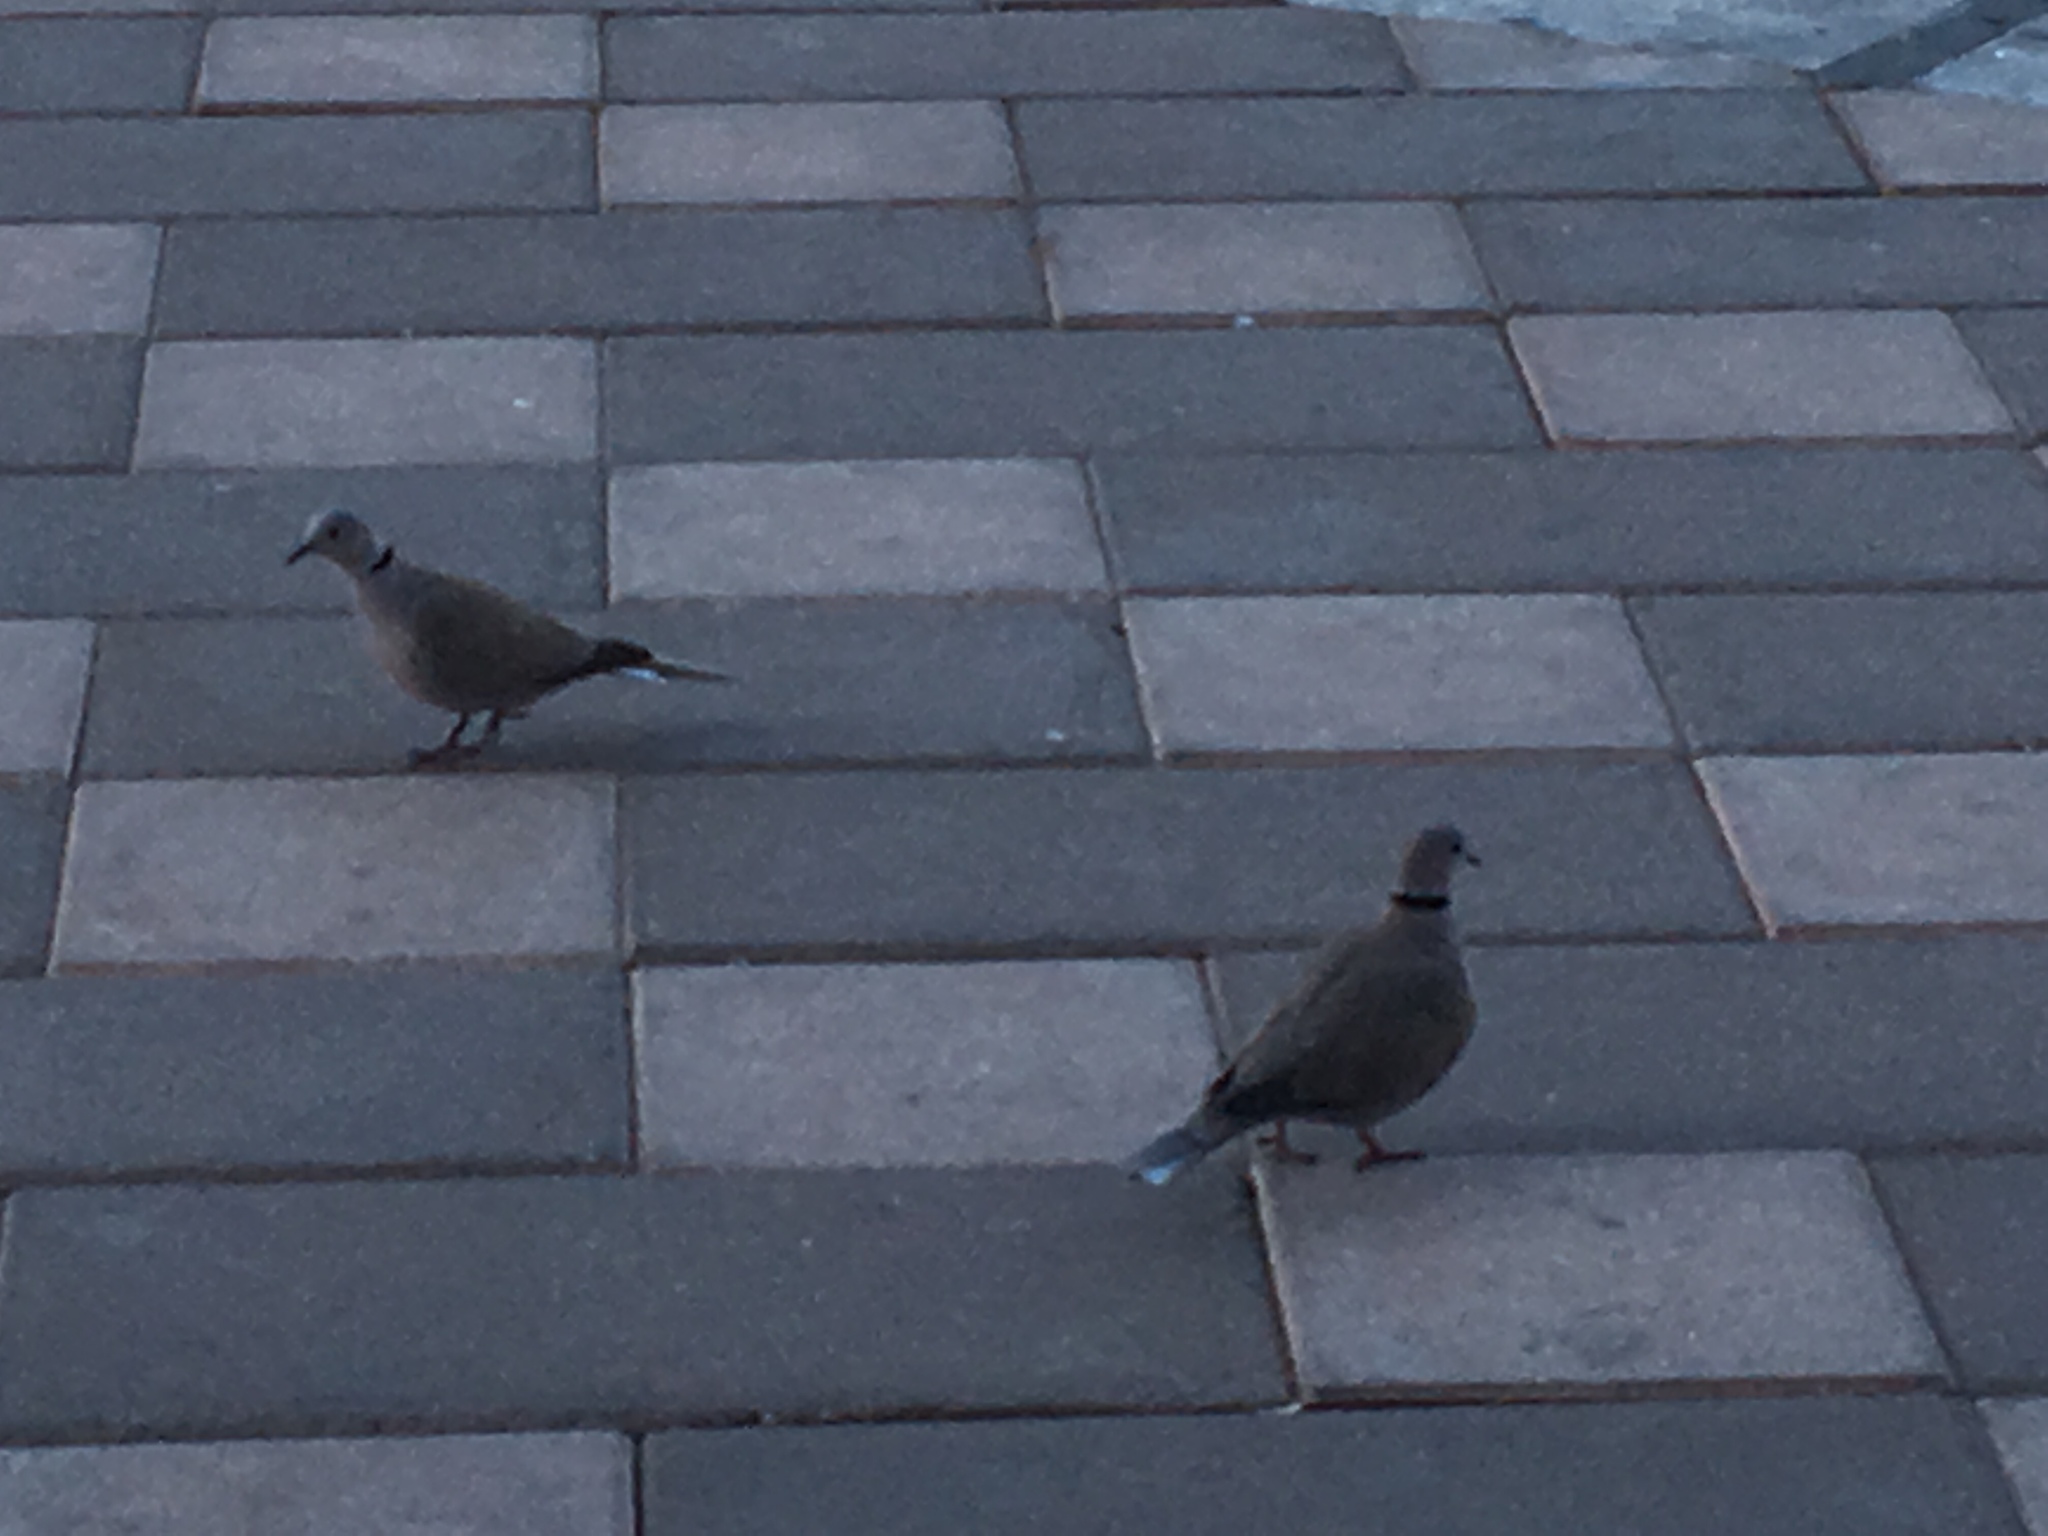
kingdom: Animalia
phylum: Chordata
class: Aves
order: Columbiformes
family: Columbidae
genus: Streptopelia
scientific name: Streptopelia decaocto
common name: Eurasian collared dove
